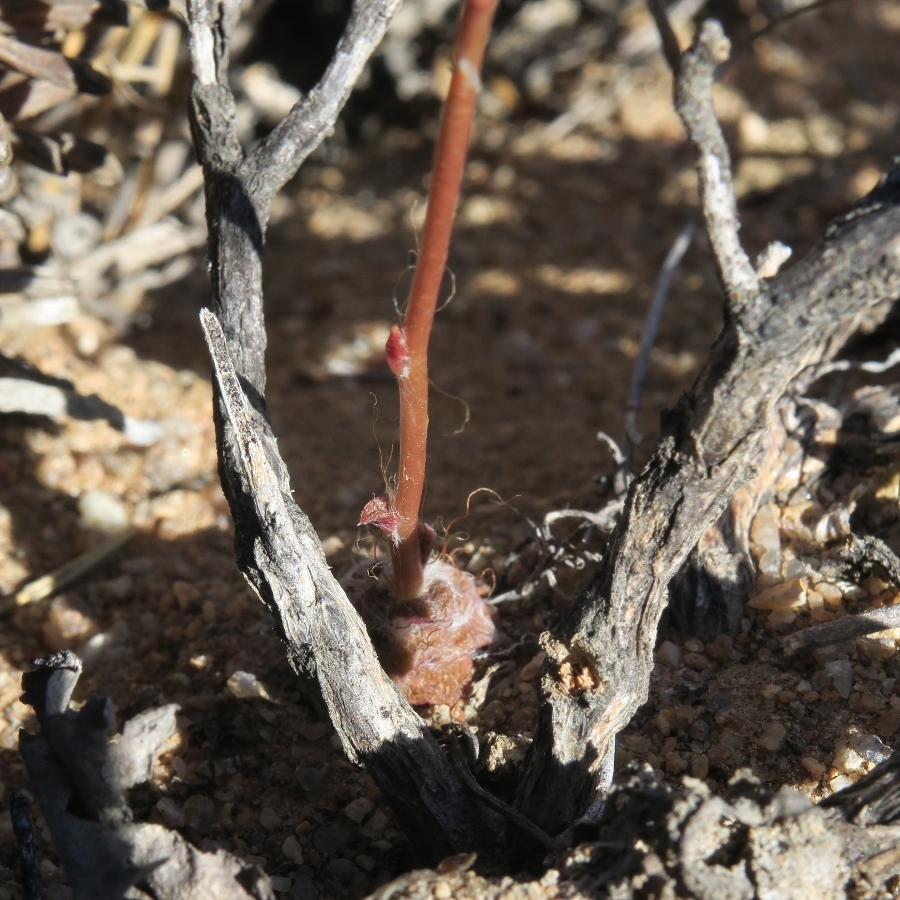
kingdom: Plantae
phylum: Tracheophyta
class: Magnoliopsida
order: Caryophyllales
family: Anacampserotaceae
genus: Anacampseros
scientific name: Anacampseros filamentosa
